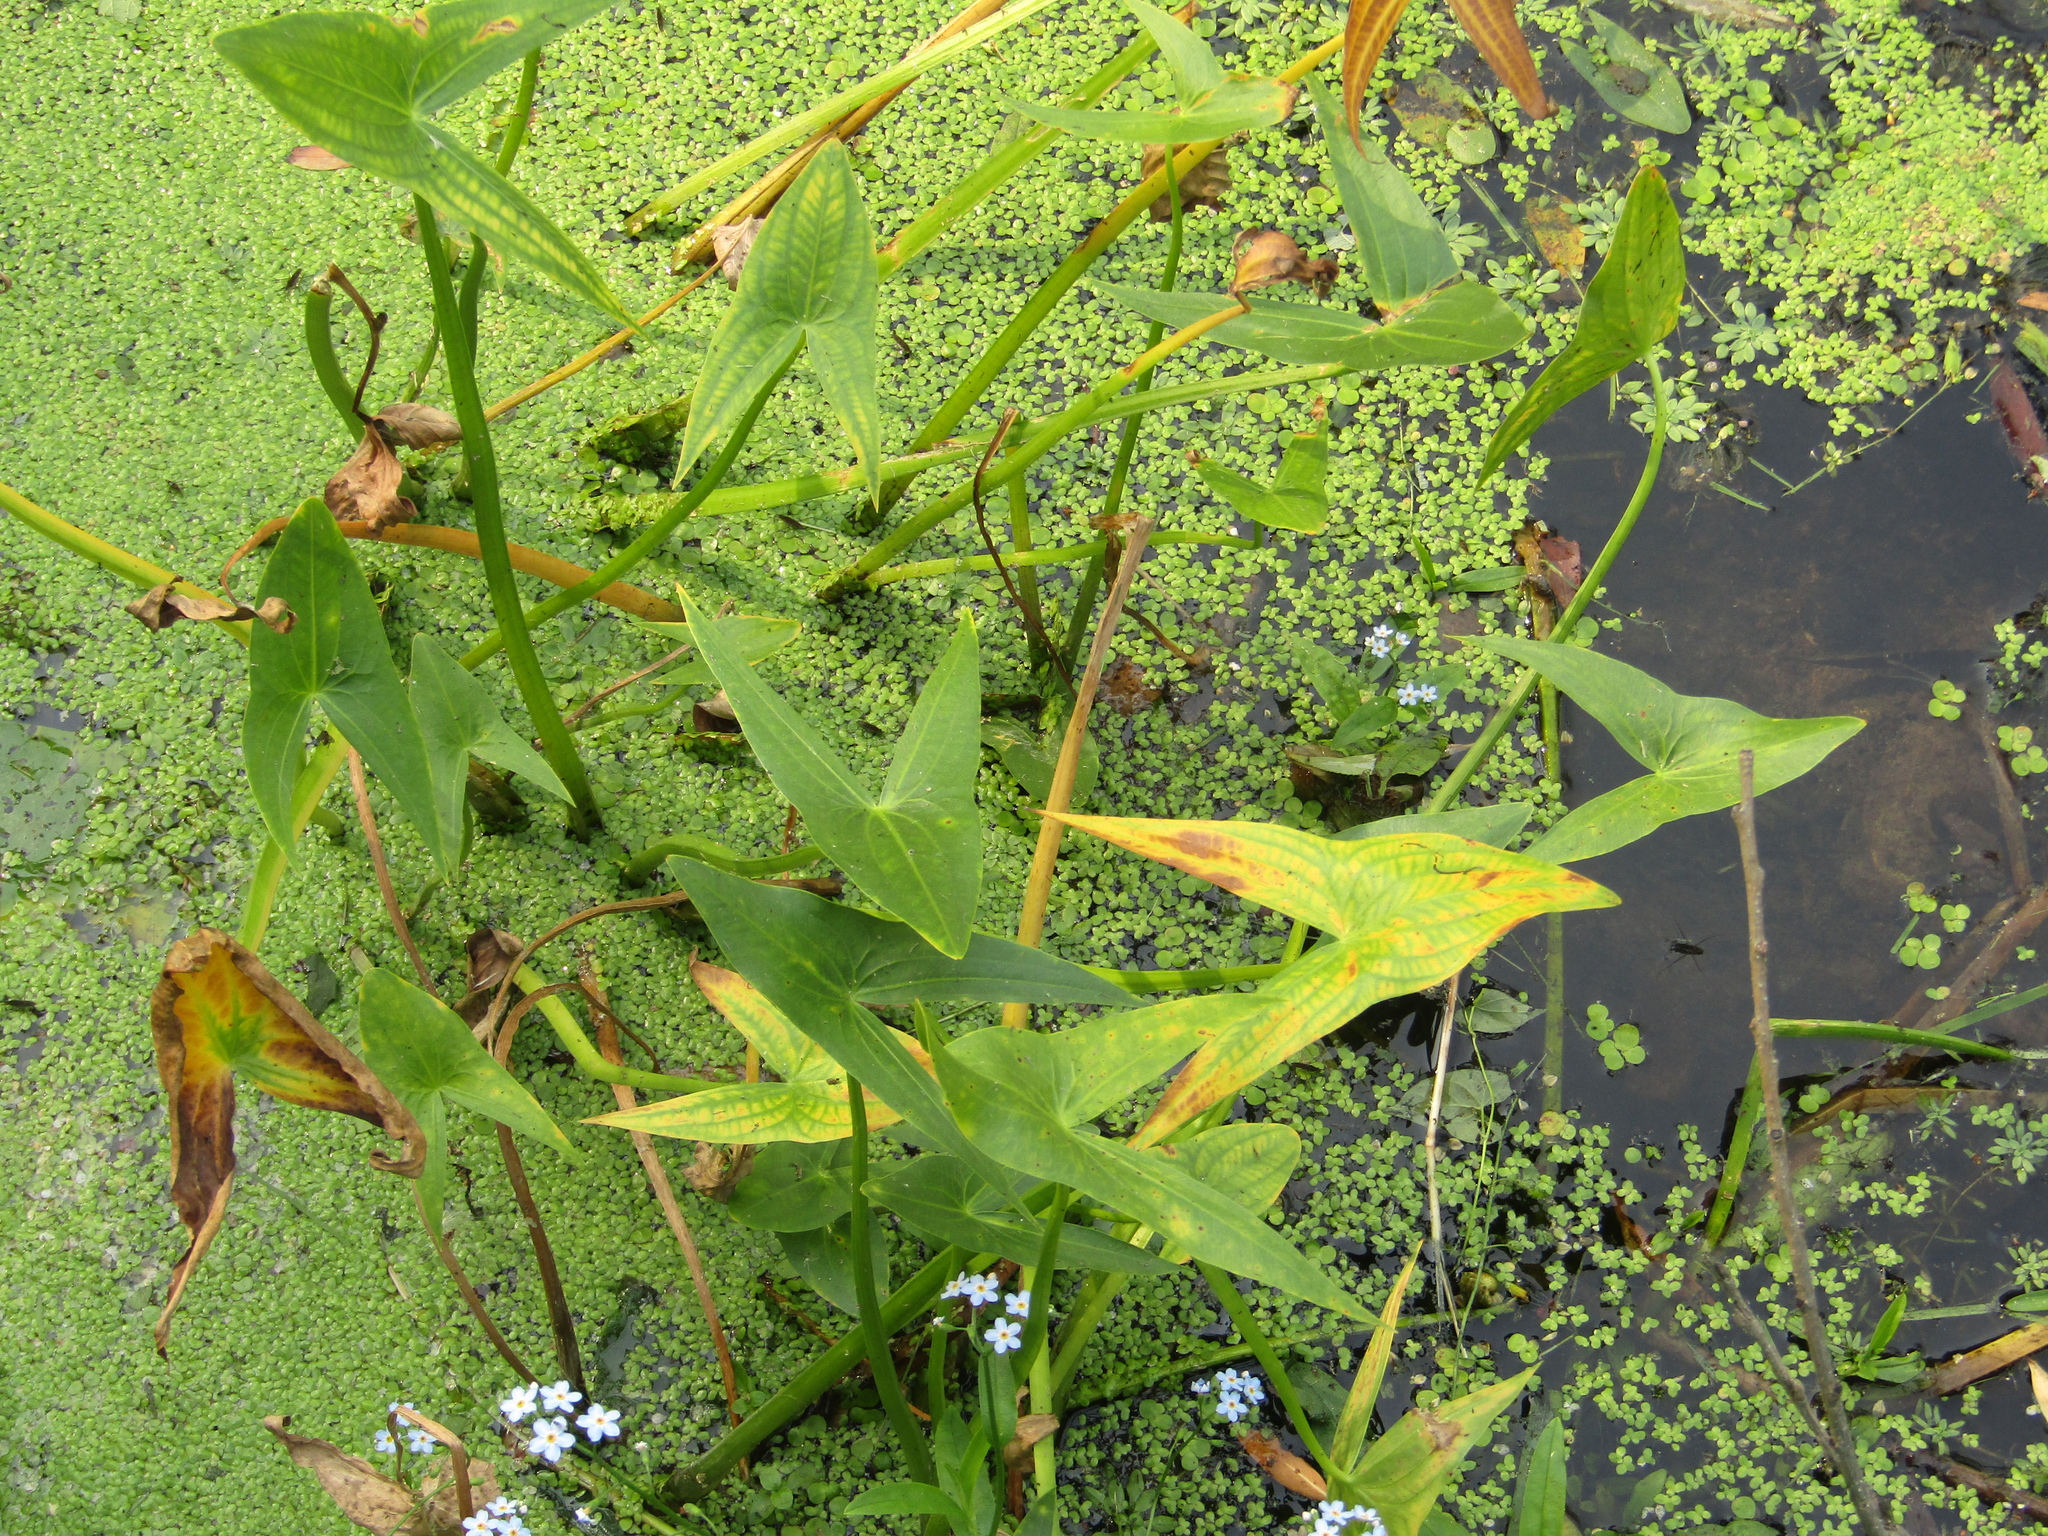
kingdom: Plantae
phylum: Tracheophyta
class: Liliopsida
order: Alismatales
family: Alismataceae
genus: Sagittaria
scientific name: Sagittaria sagittifolia
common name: Arrowhead
